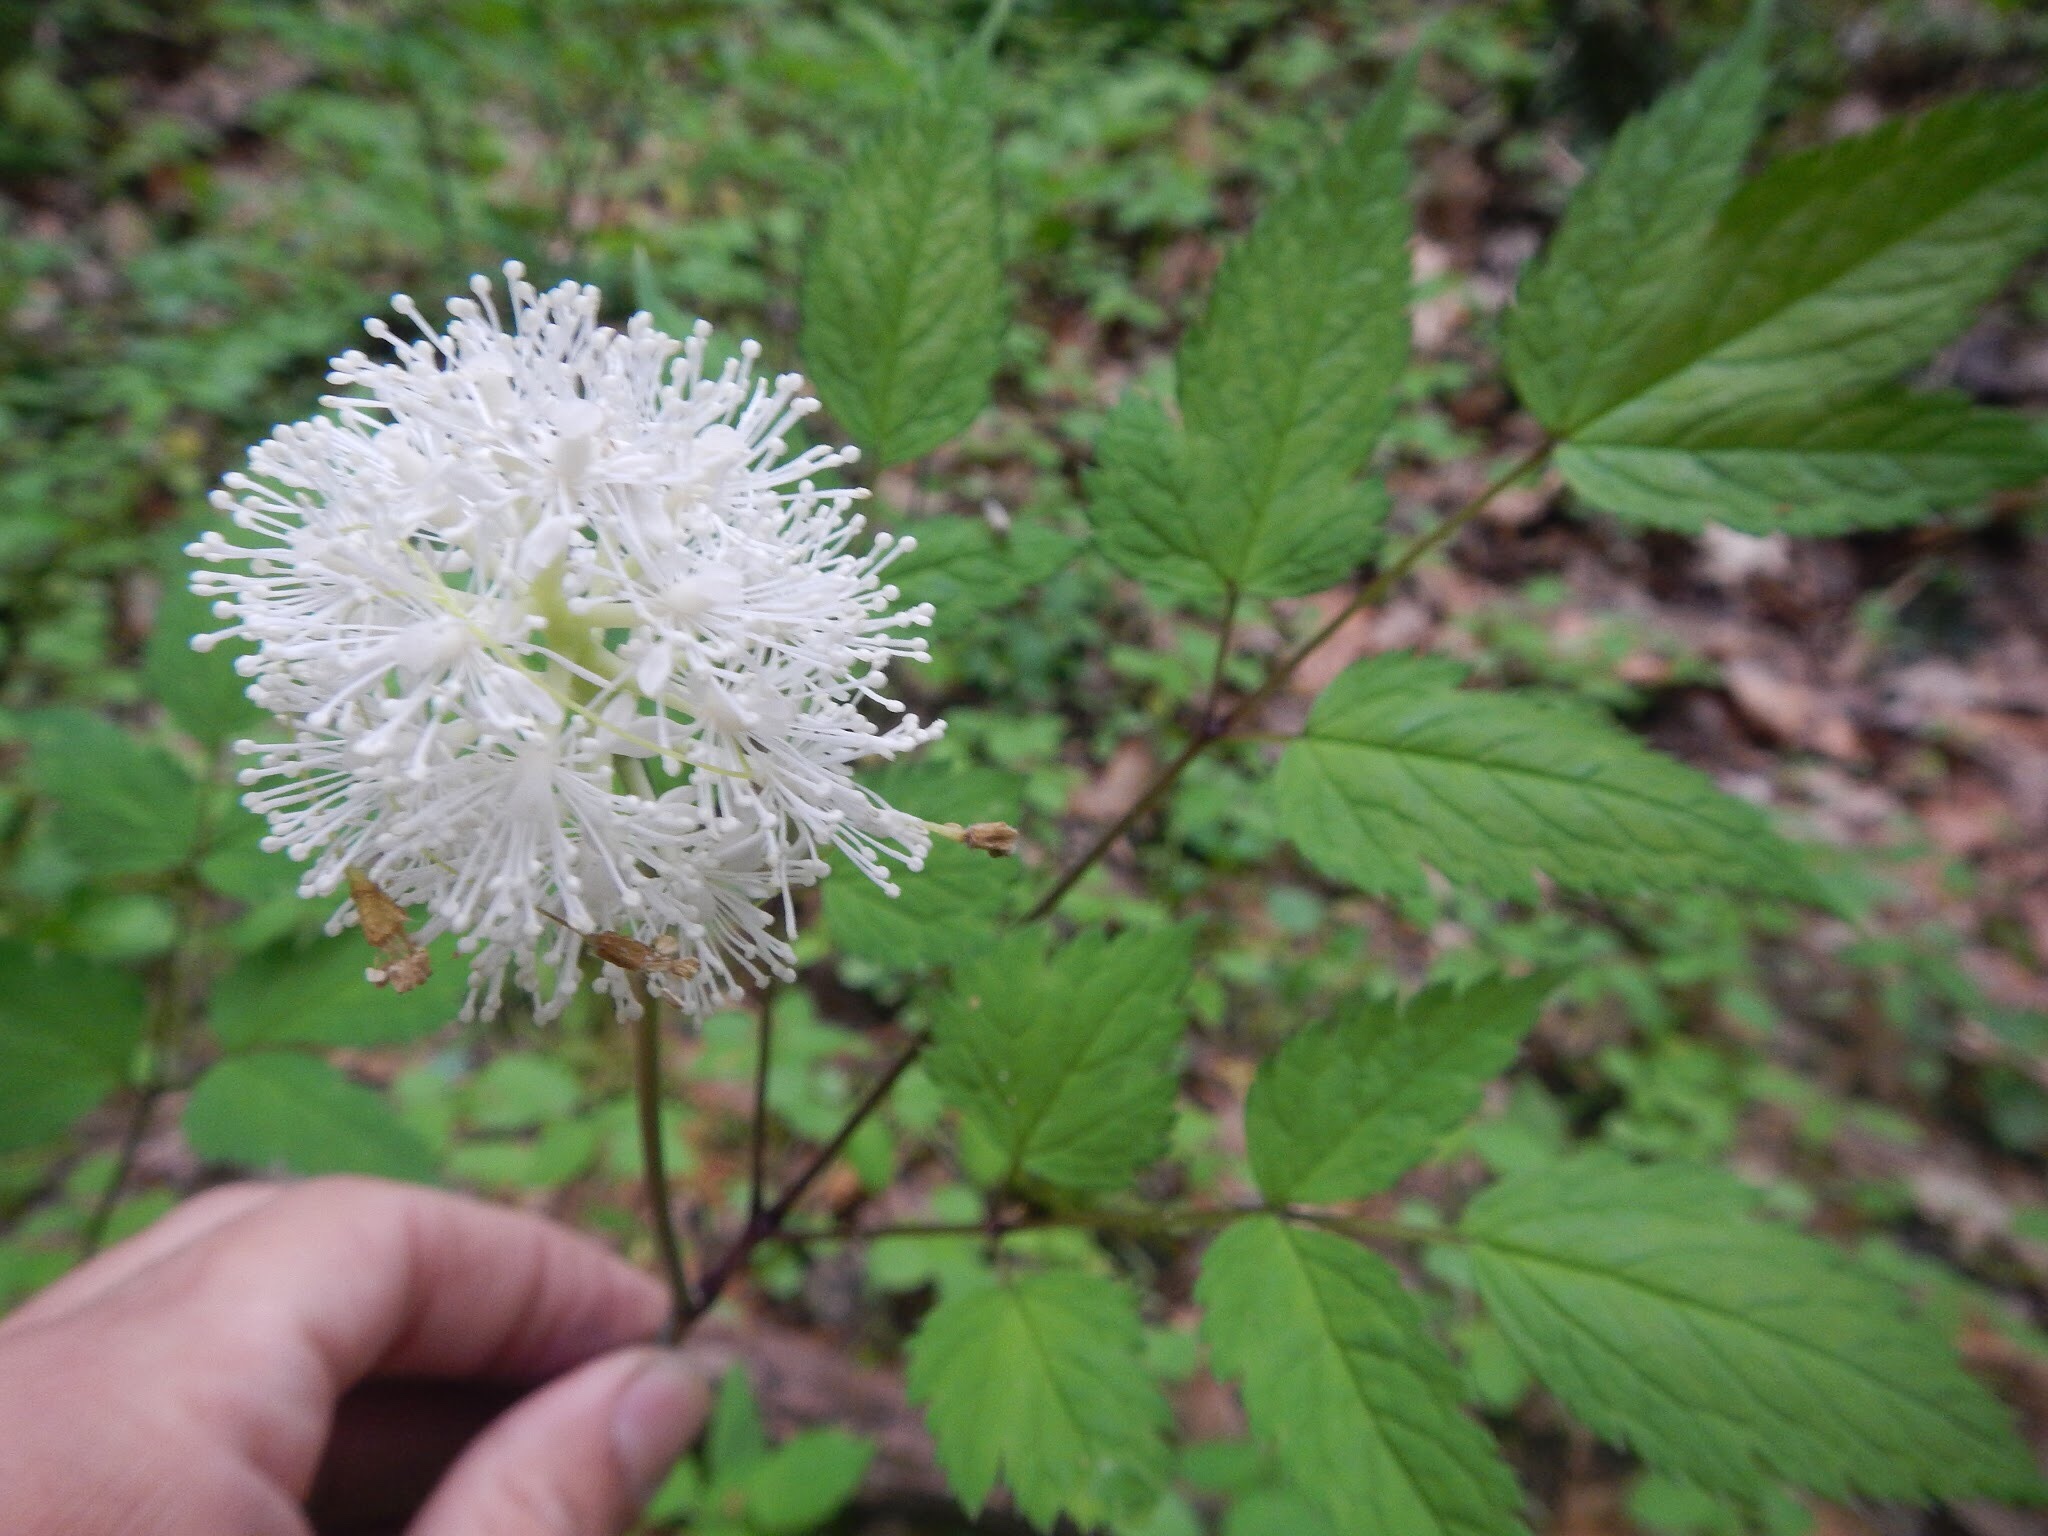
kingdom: Plantae
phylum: Tracheophyta
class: Magnoliopsida
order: Ranunculales
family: Ranunculaceae
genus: Actaea
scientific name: Actaea pachypoda
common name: Doll's-eyes
